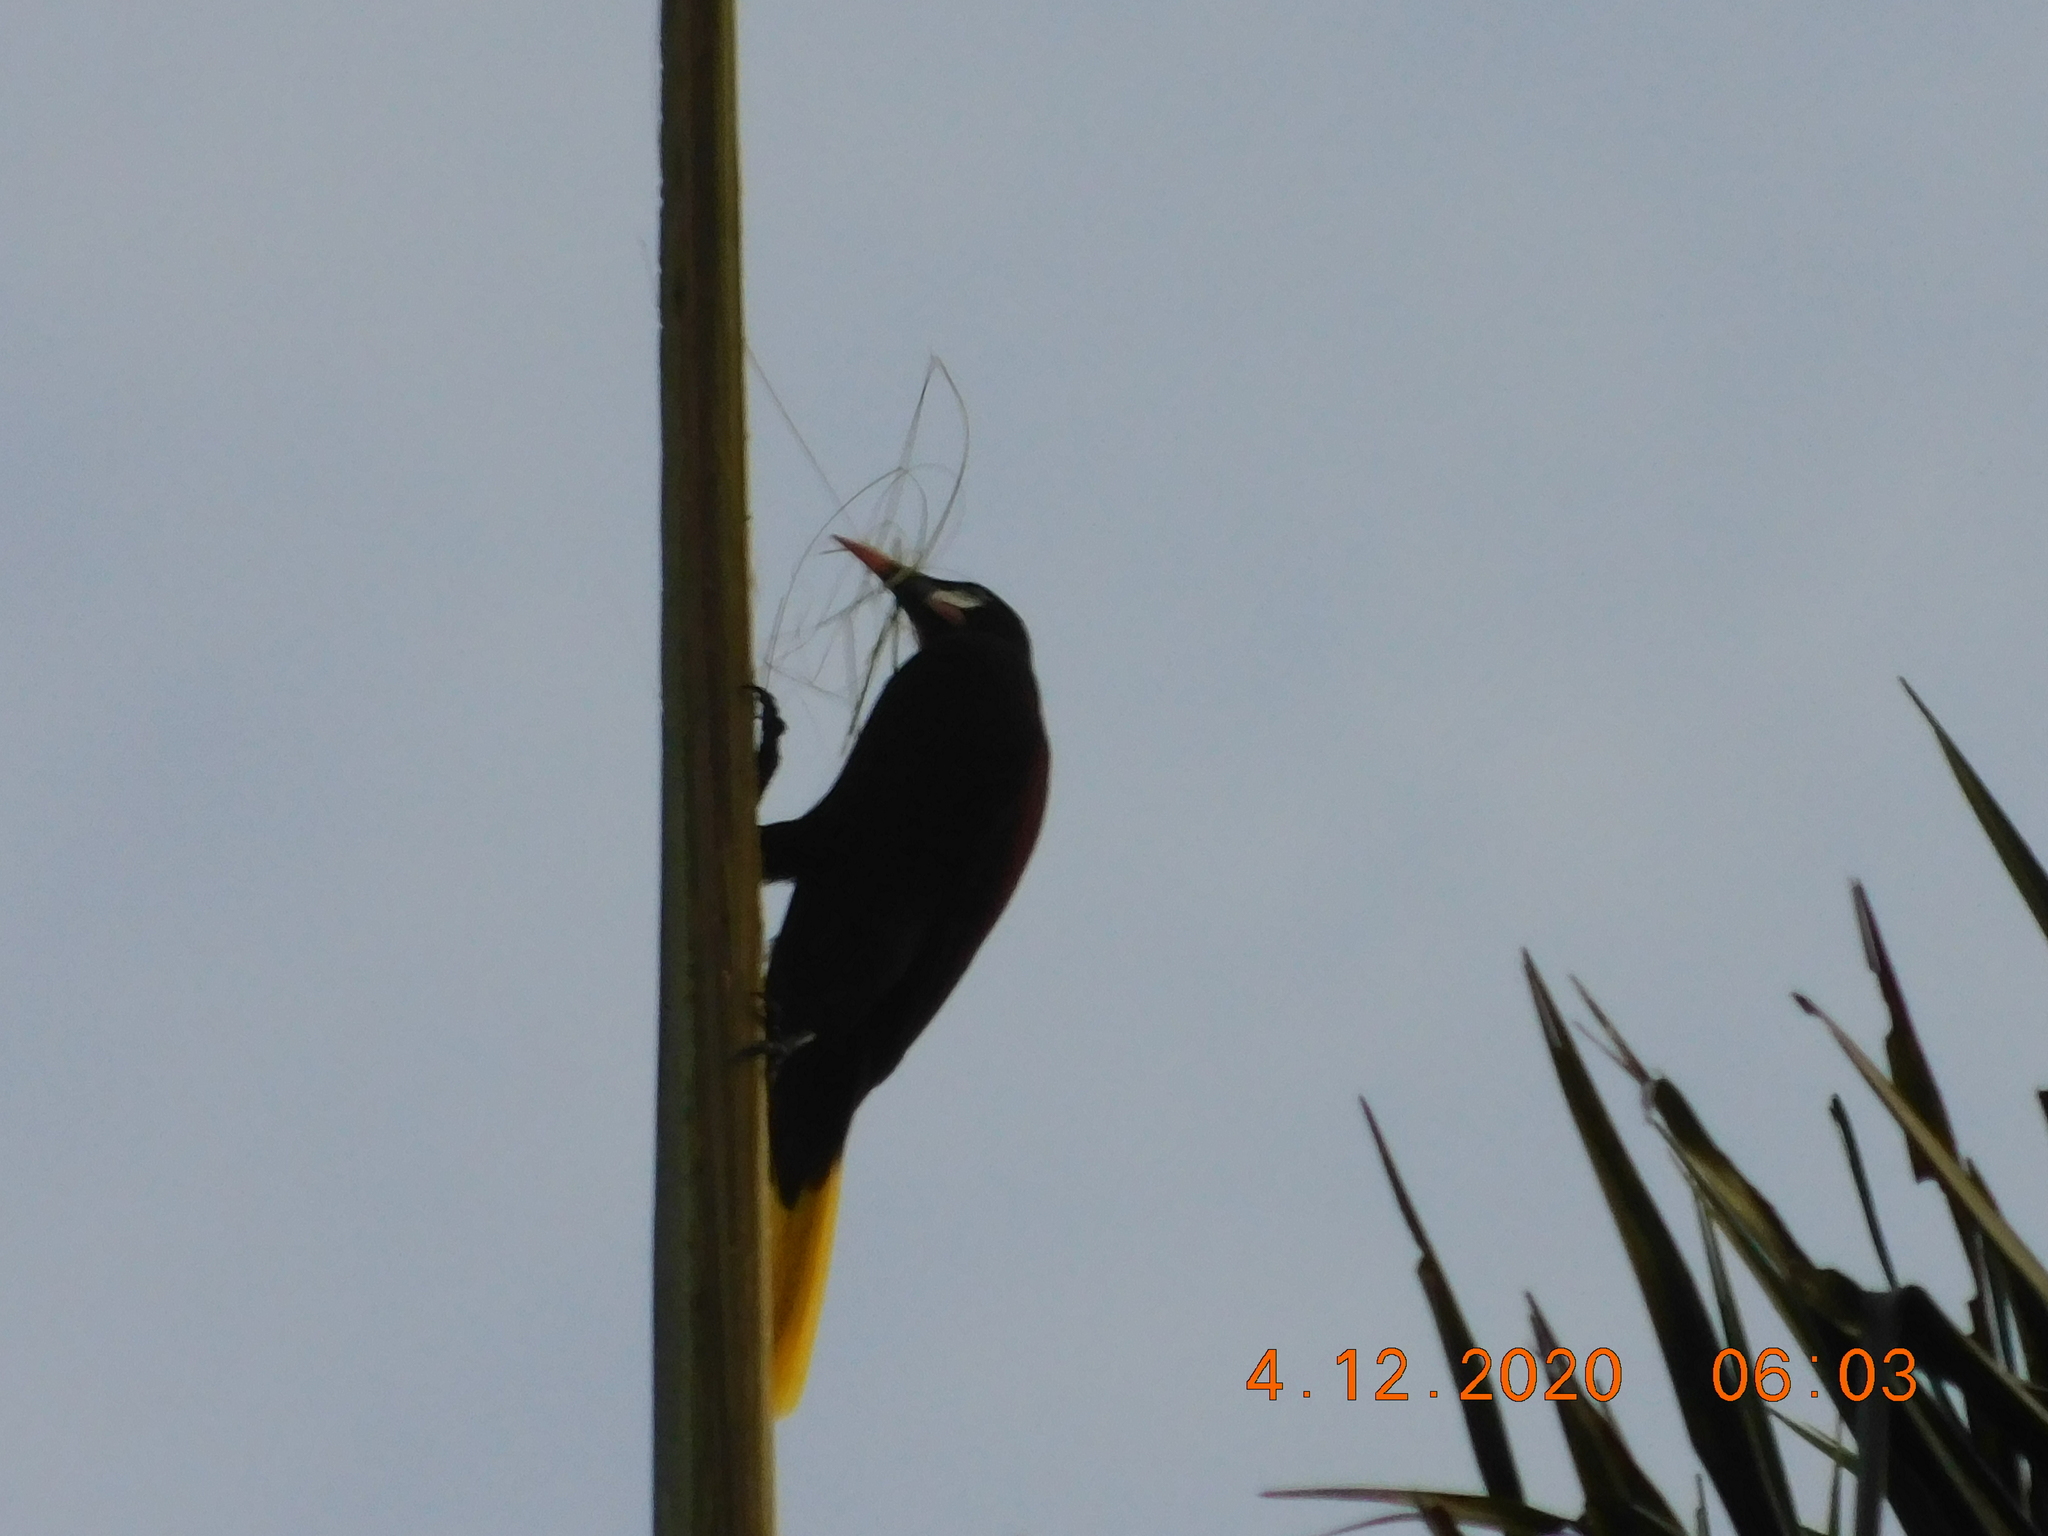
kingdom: Animalia
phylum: Chordata
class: Aves
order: Passeriformes
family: Icteridae
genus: Psarocolius
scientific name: Psarocolius montezuma
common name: Montezuma oropendola
